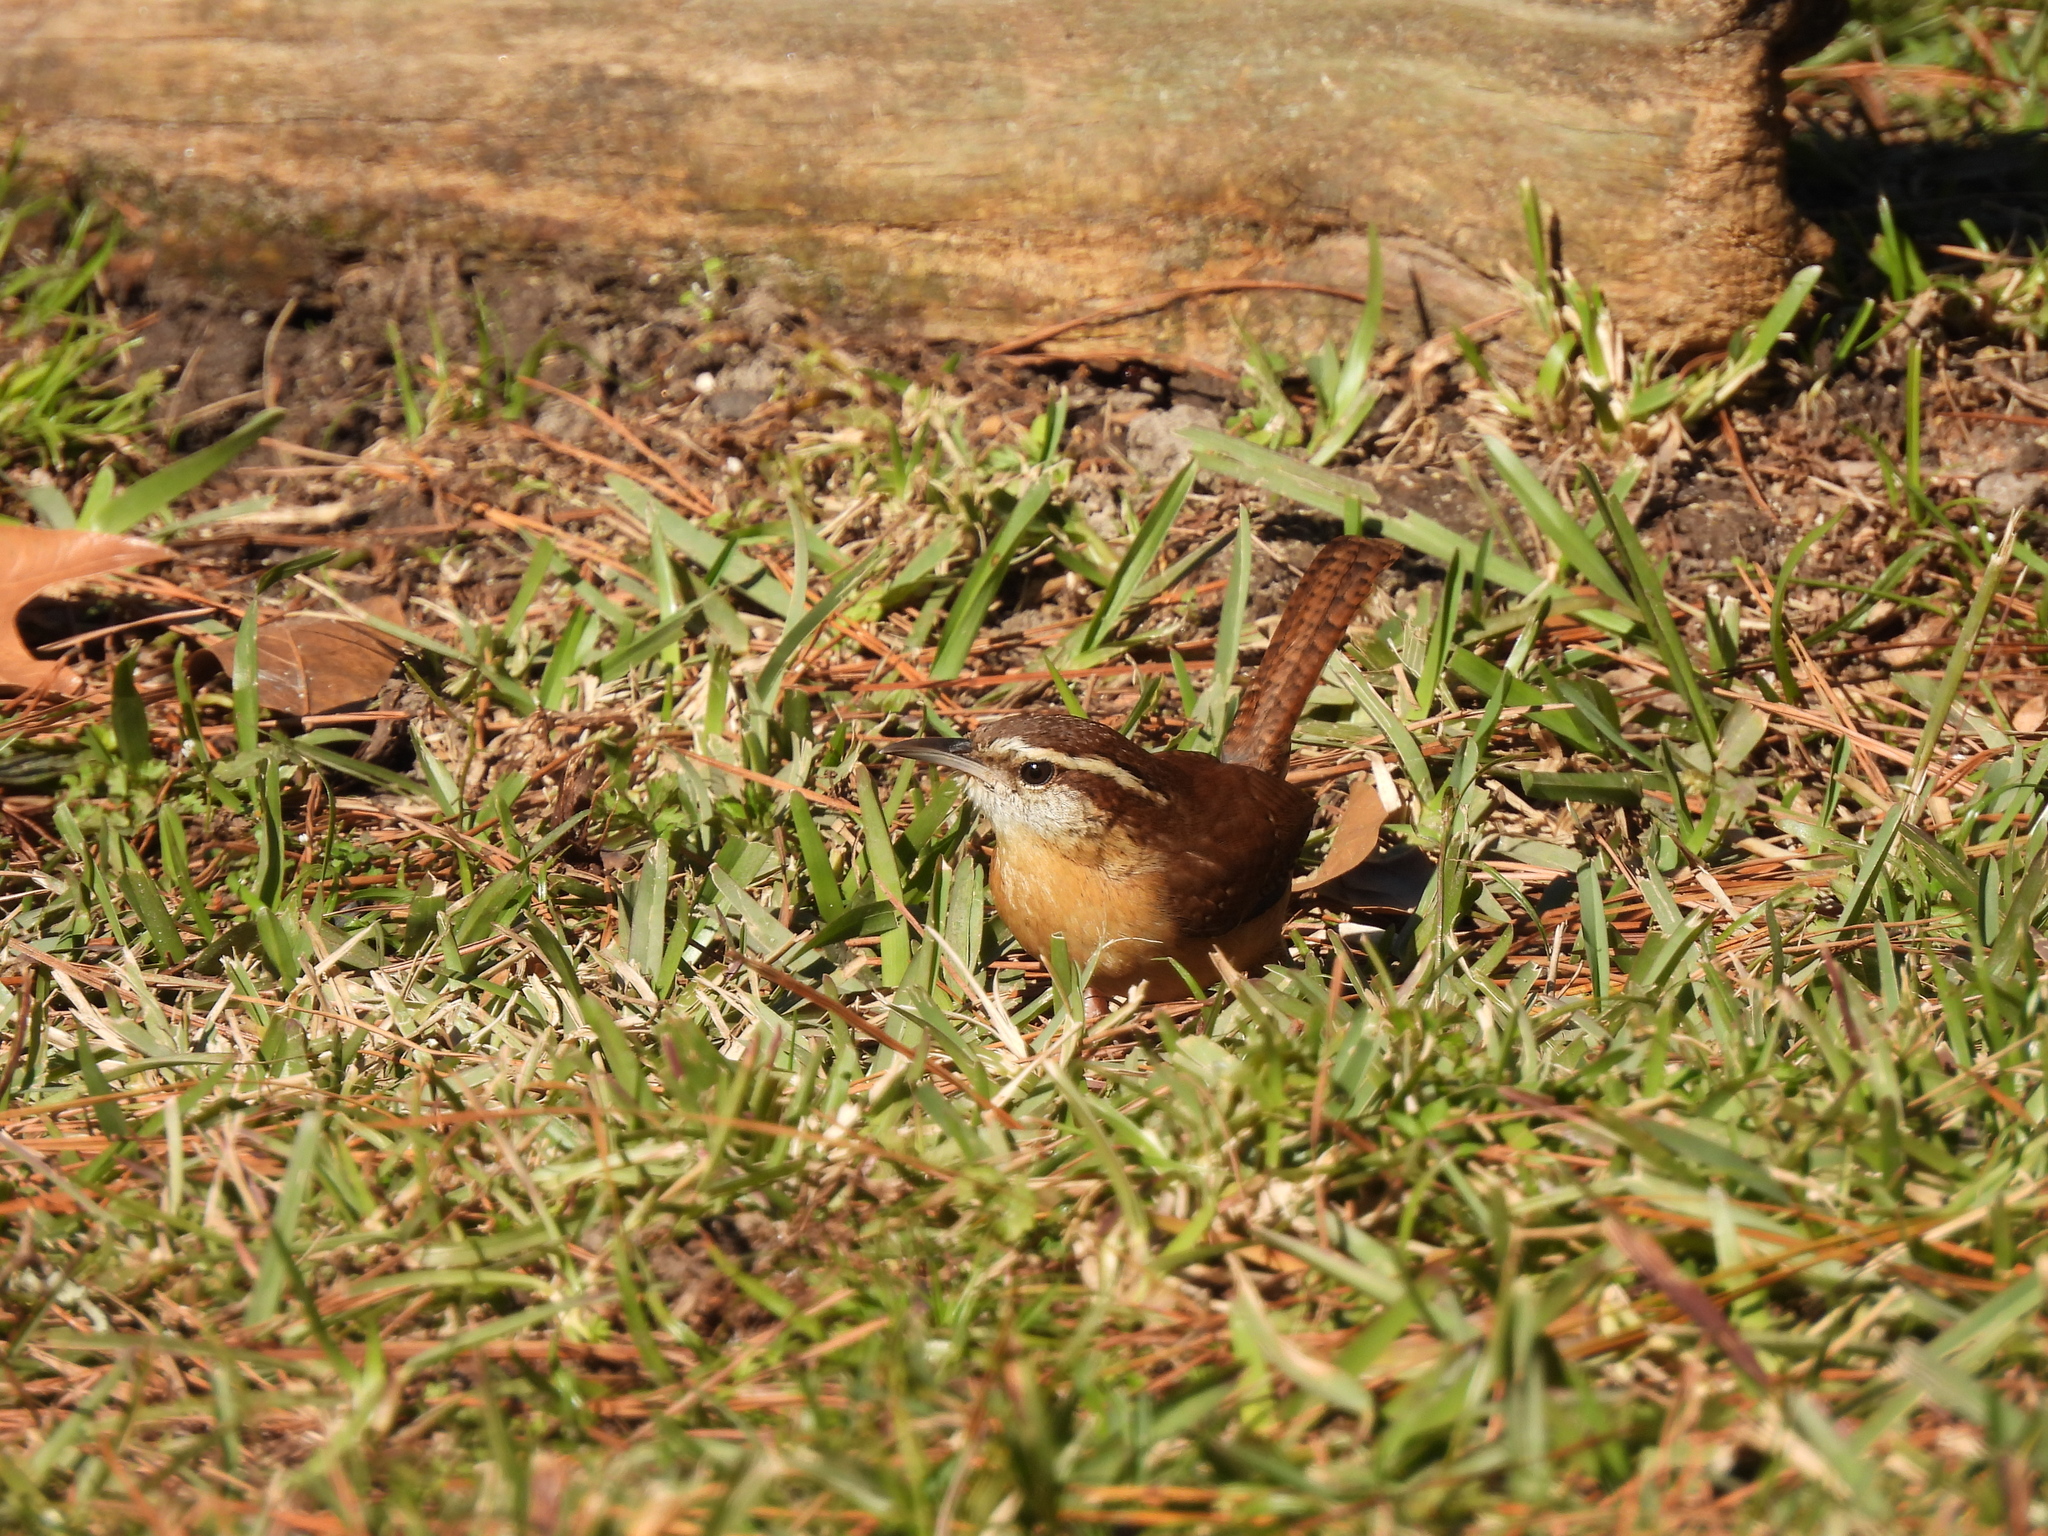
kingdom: Animalia
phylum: Chordata
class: Aves
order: Passeriformes
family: Troglodytidae
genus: Thryothorus
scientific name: Thryothorus ludovicianus
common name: Carolina wren
